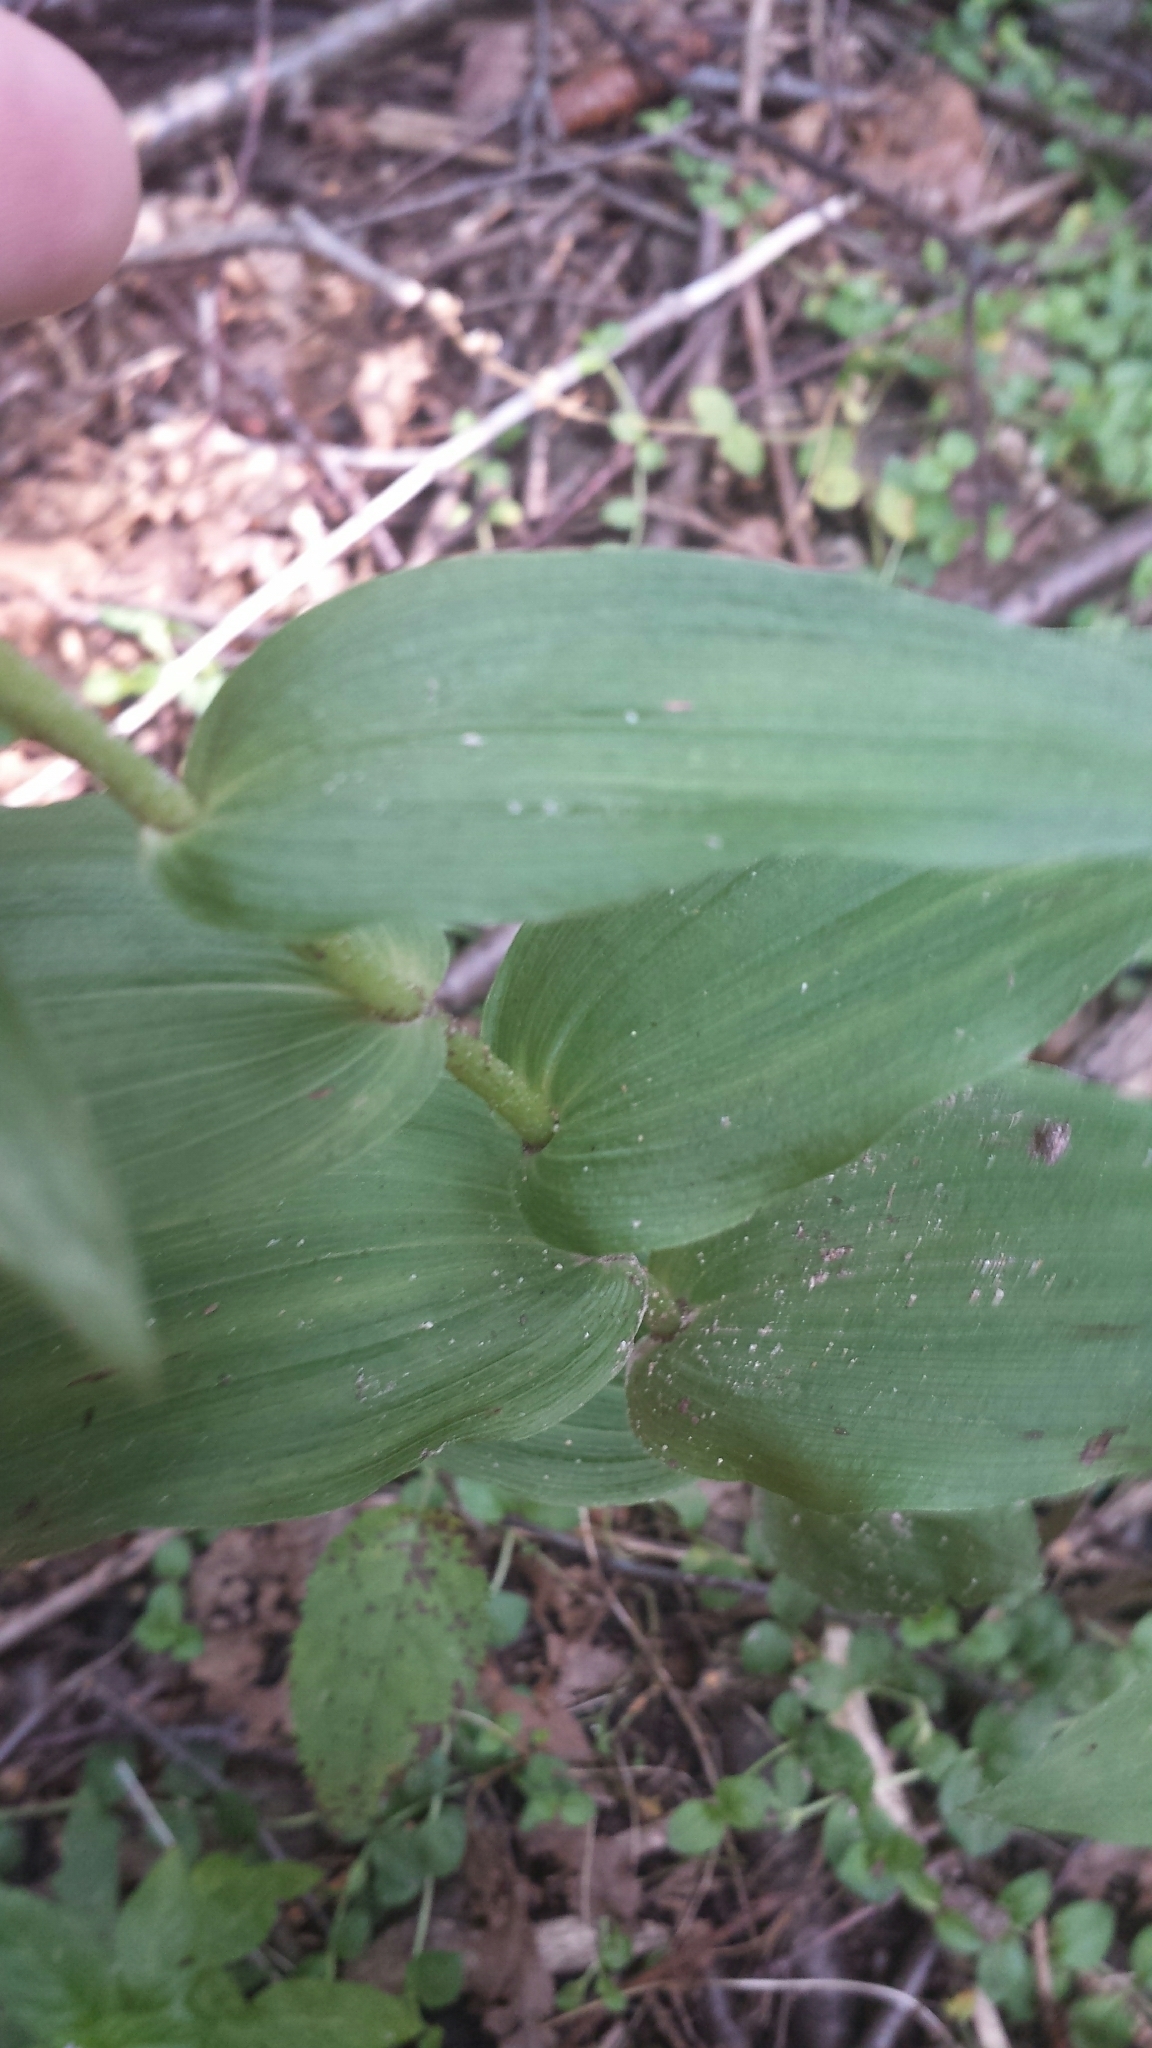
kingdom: Plantae
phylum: Tracheophyta
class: Liliopsida
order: Asparagales
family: Orchidaceae
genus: Epipactis
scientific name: Epipactis helleborine
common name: Broad-leaved helleborine
